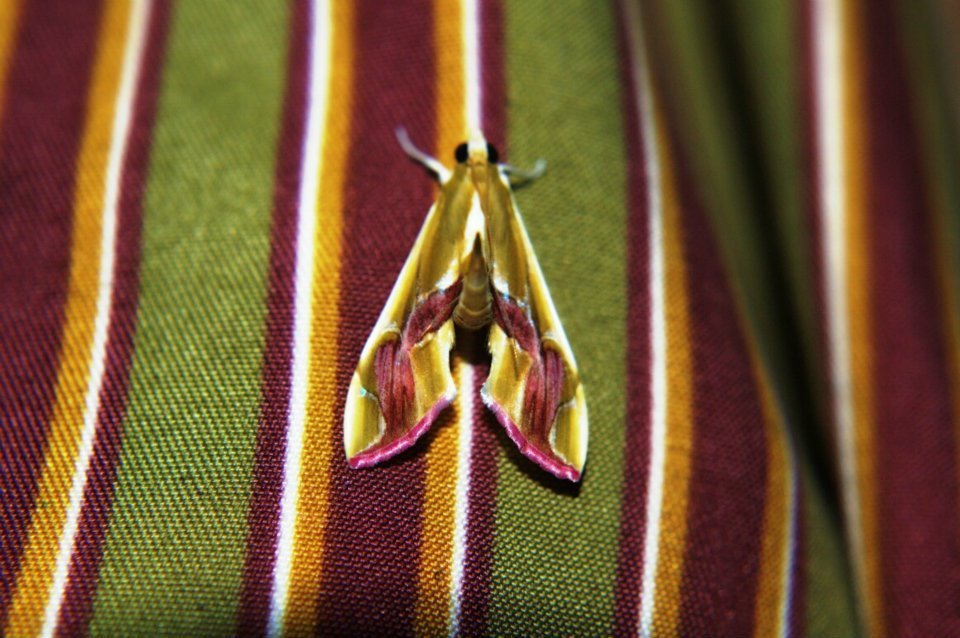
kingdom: Animalia
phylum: Arthropoda
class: Insecta
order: Lepidoptera
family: Crambidae
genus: Agathodes
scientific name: Agathodes ostentalis
